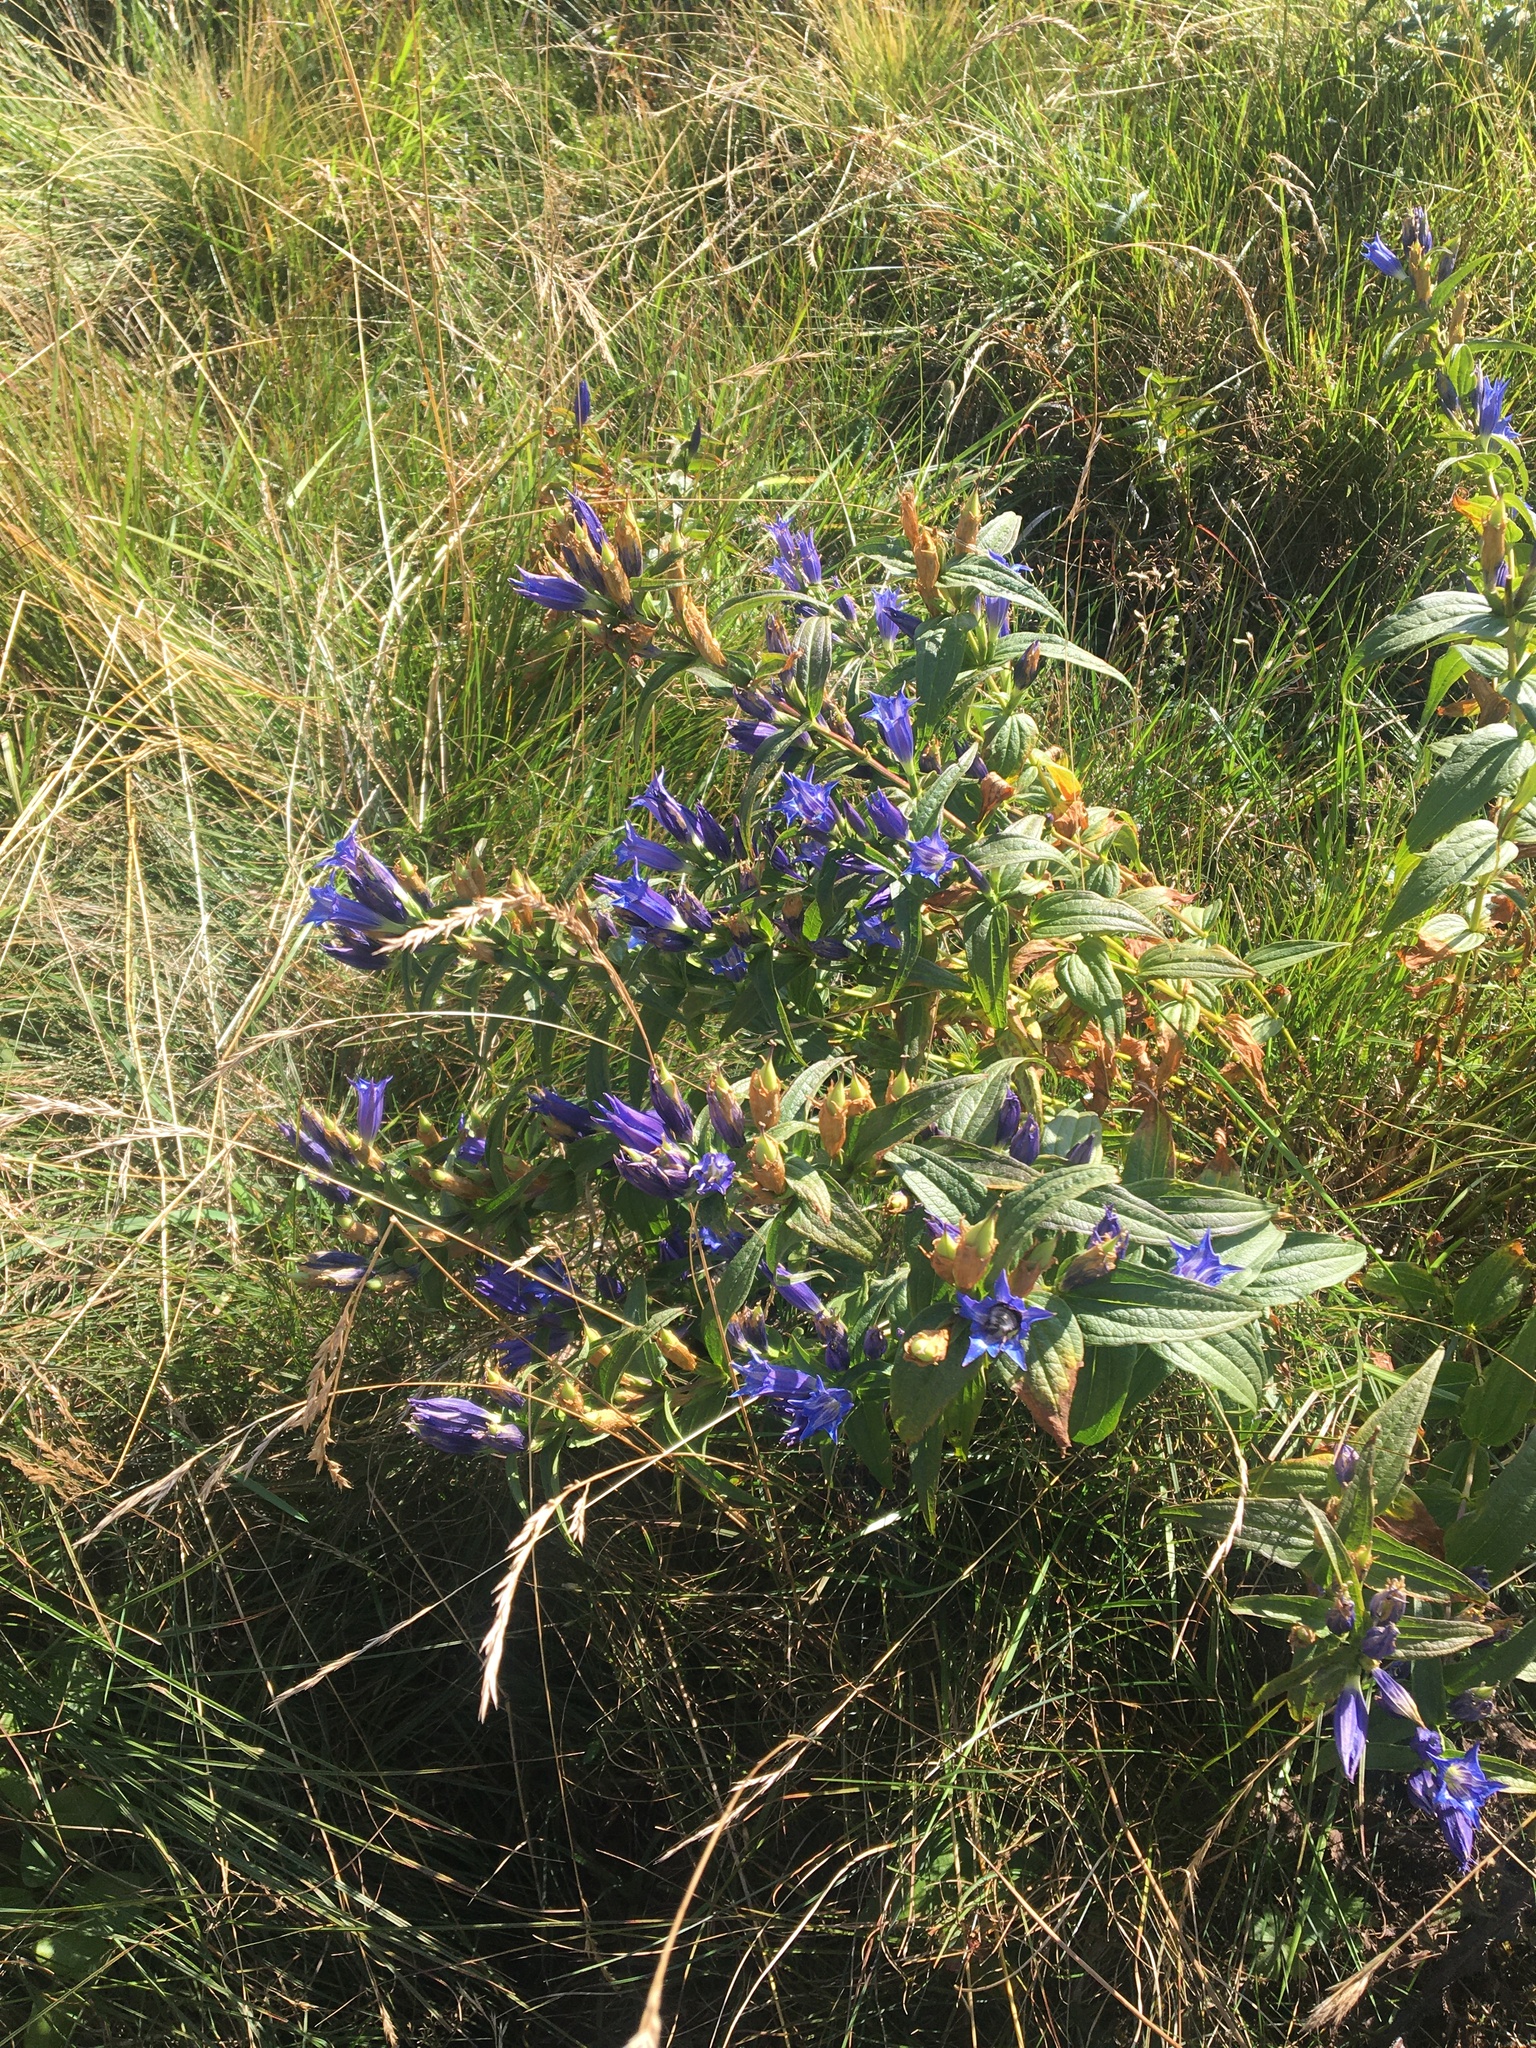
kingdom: Plantae
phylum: Tracheophyta
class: Magnoliopsida
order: Gentianales
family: Gentianaceae
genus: Gentiana
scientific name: Gentiana asclepiadea
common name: Willow gentian
